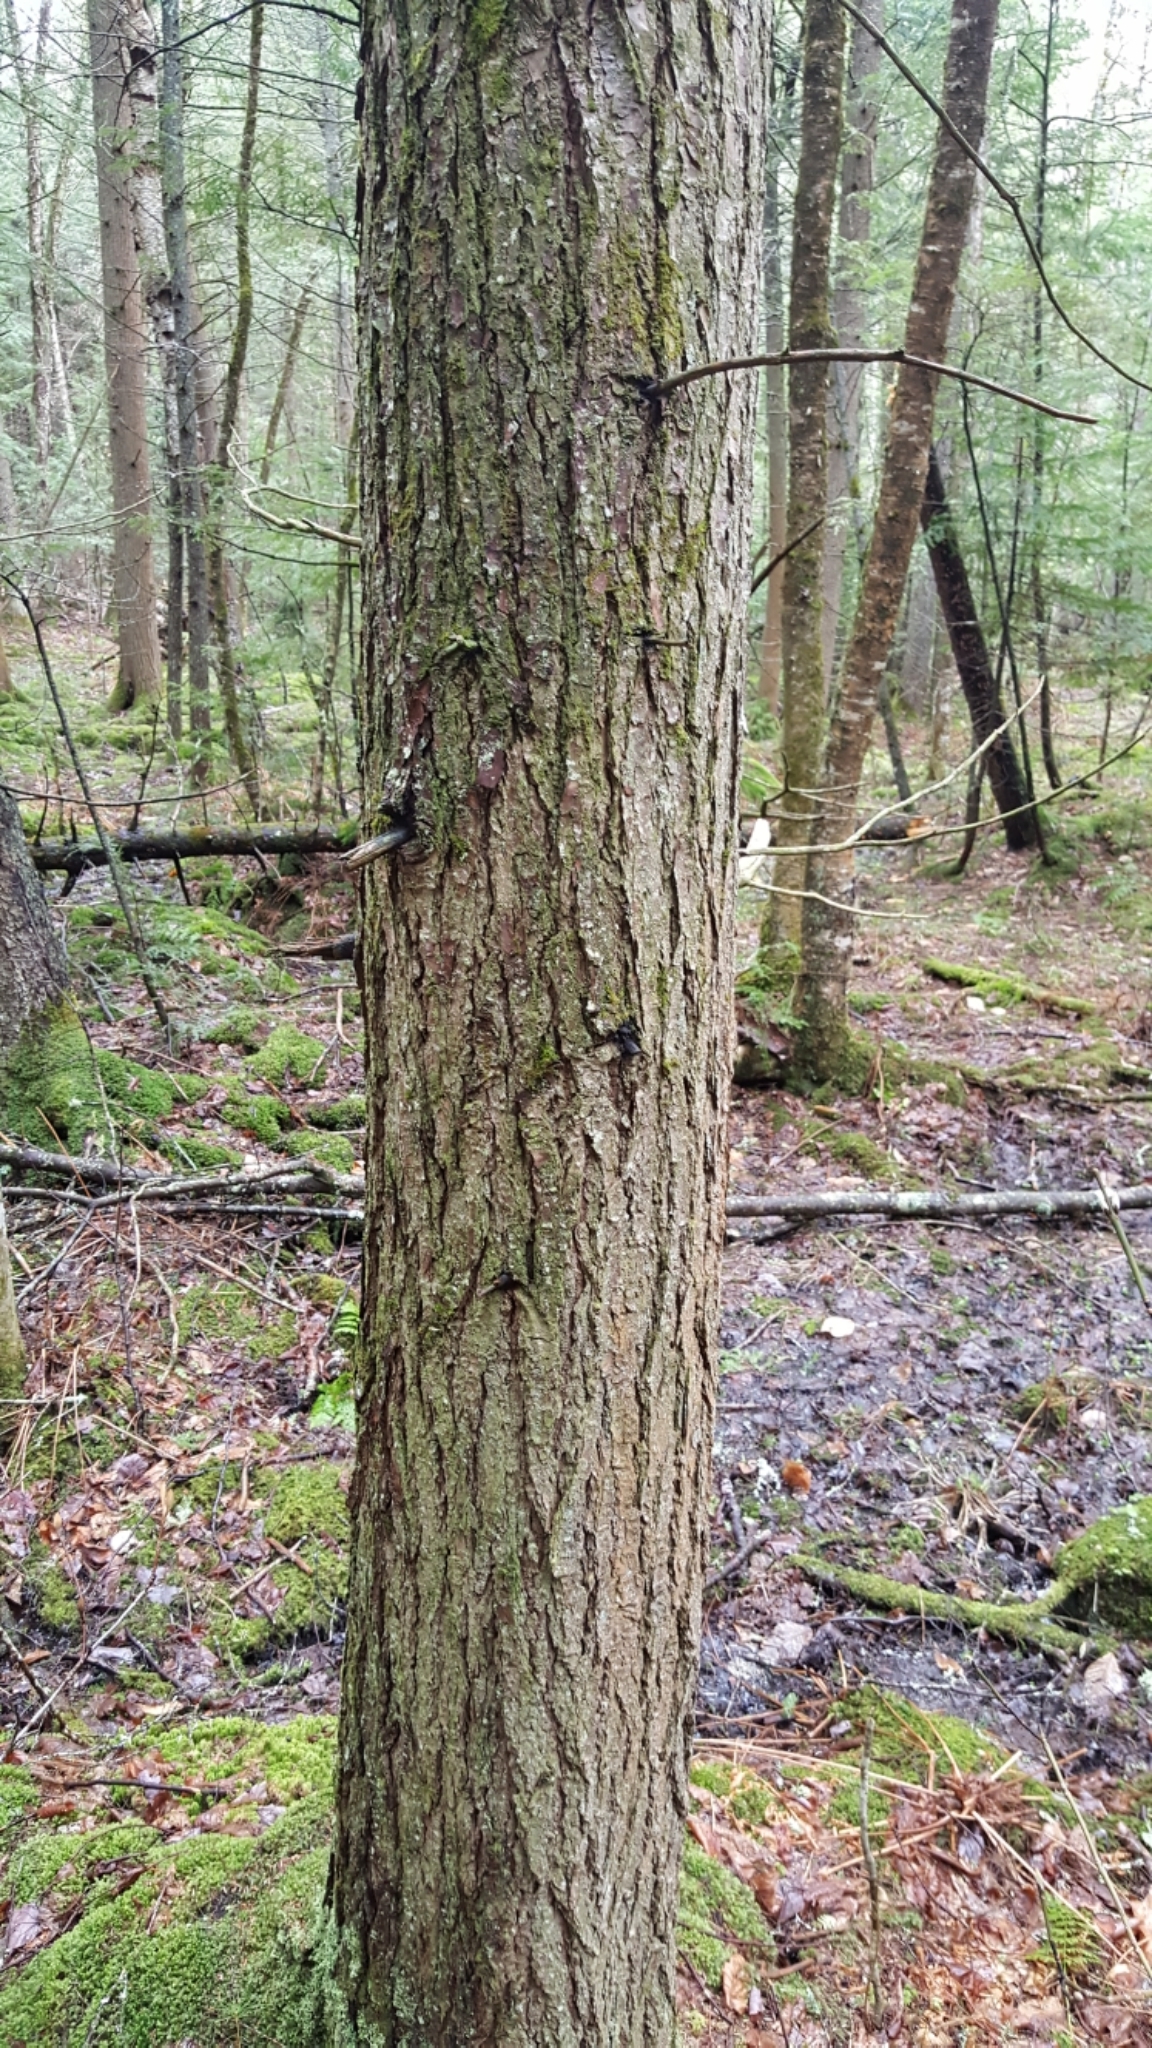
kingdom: Plantae
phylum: Tracheophyta
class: Pinopsida
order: Pinales
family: Pinaceae
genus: Tsuga
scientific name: Tsuga canadensis
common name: Eastern hemlock
